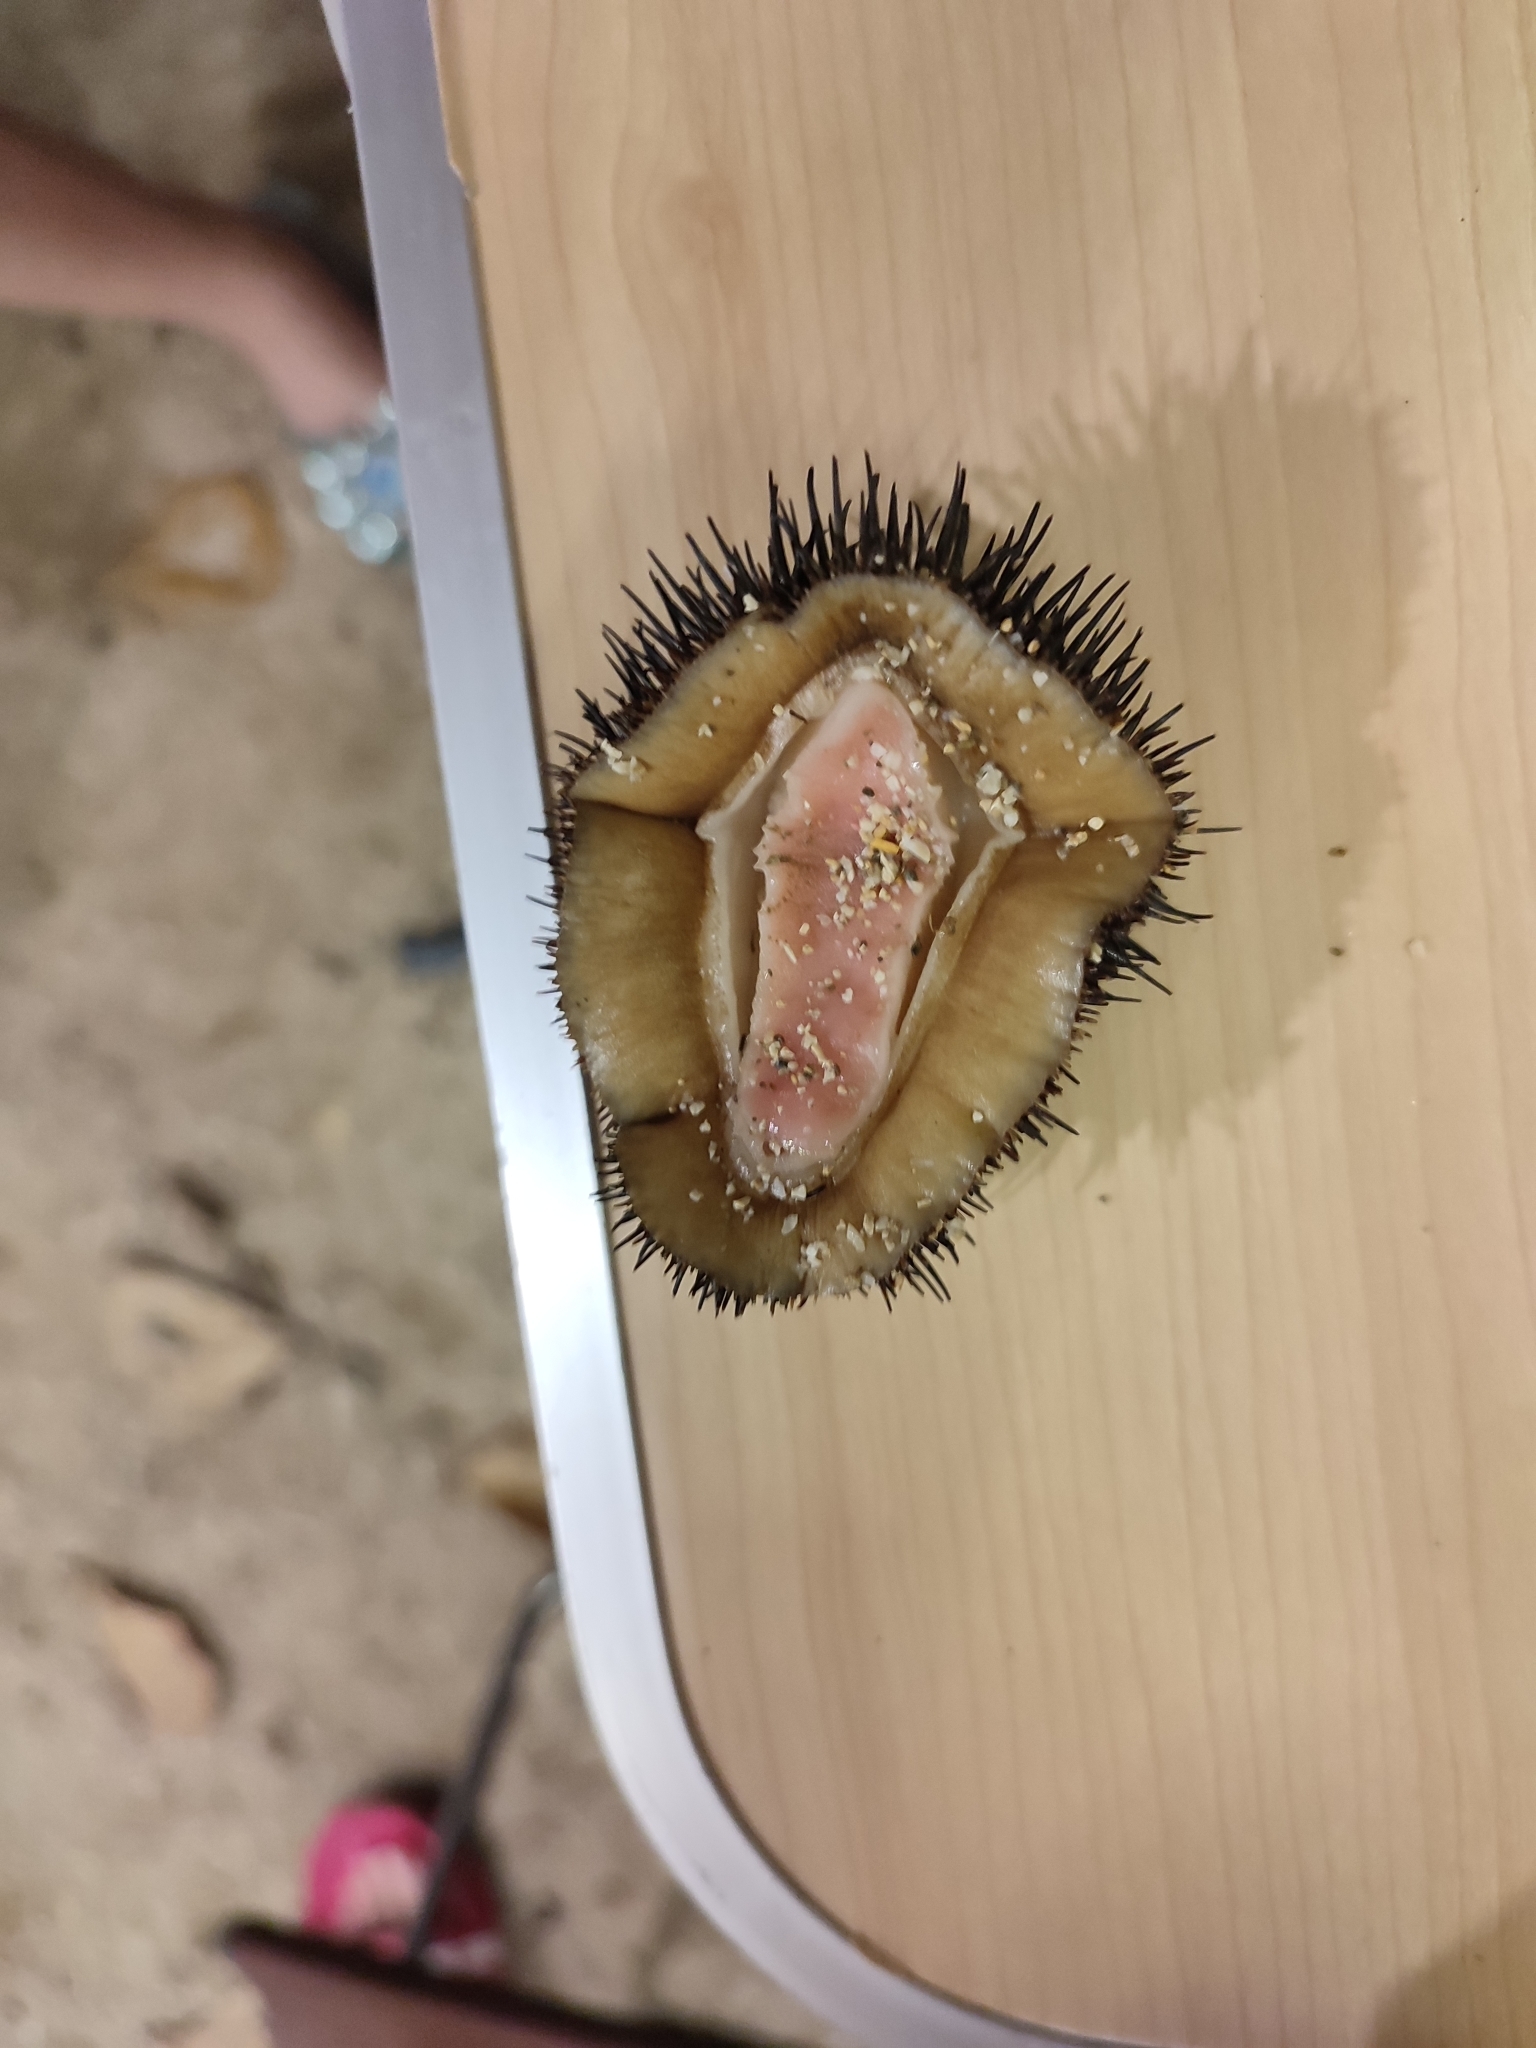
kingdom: Animalia
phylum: Mollusca
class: Polyplacophora
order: Chitonida
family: Chitonidae
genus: Acanthopleura
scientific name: Acanthopleura spinosa
